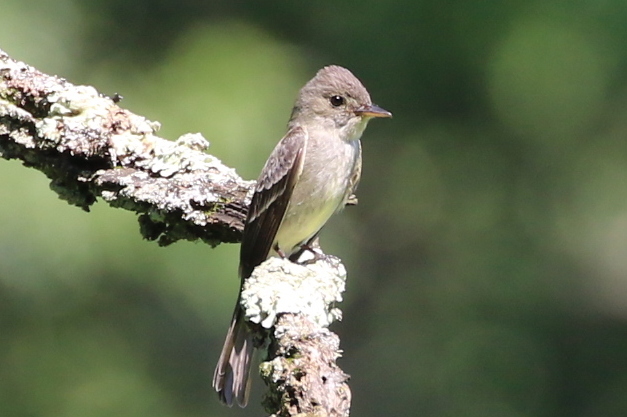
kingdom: Animalia
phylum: Chordata
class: Aves
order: Passeriformes
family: Tyrannidae
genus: Contopus
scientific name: Contopus virens
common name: Eastern wood-pewee
